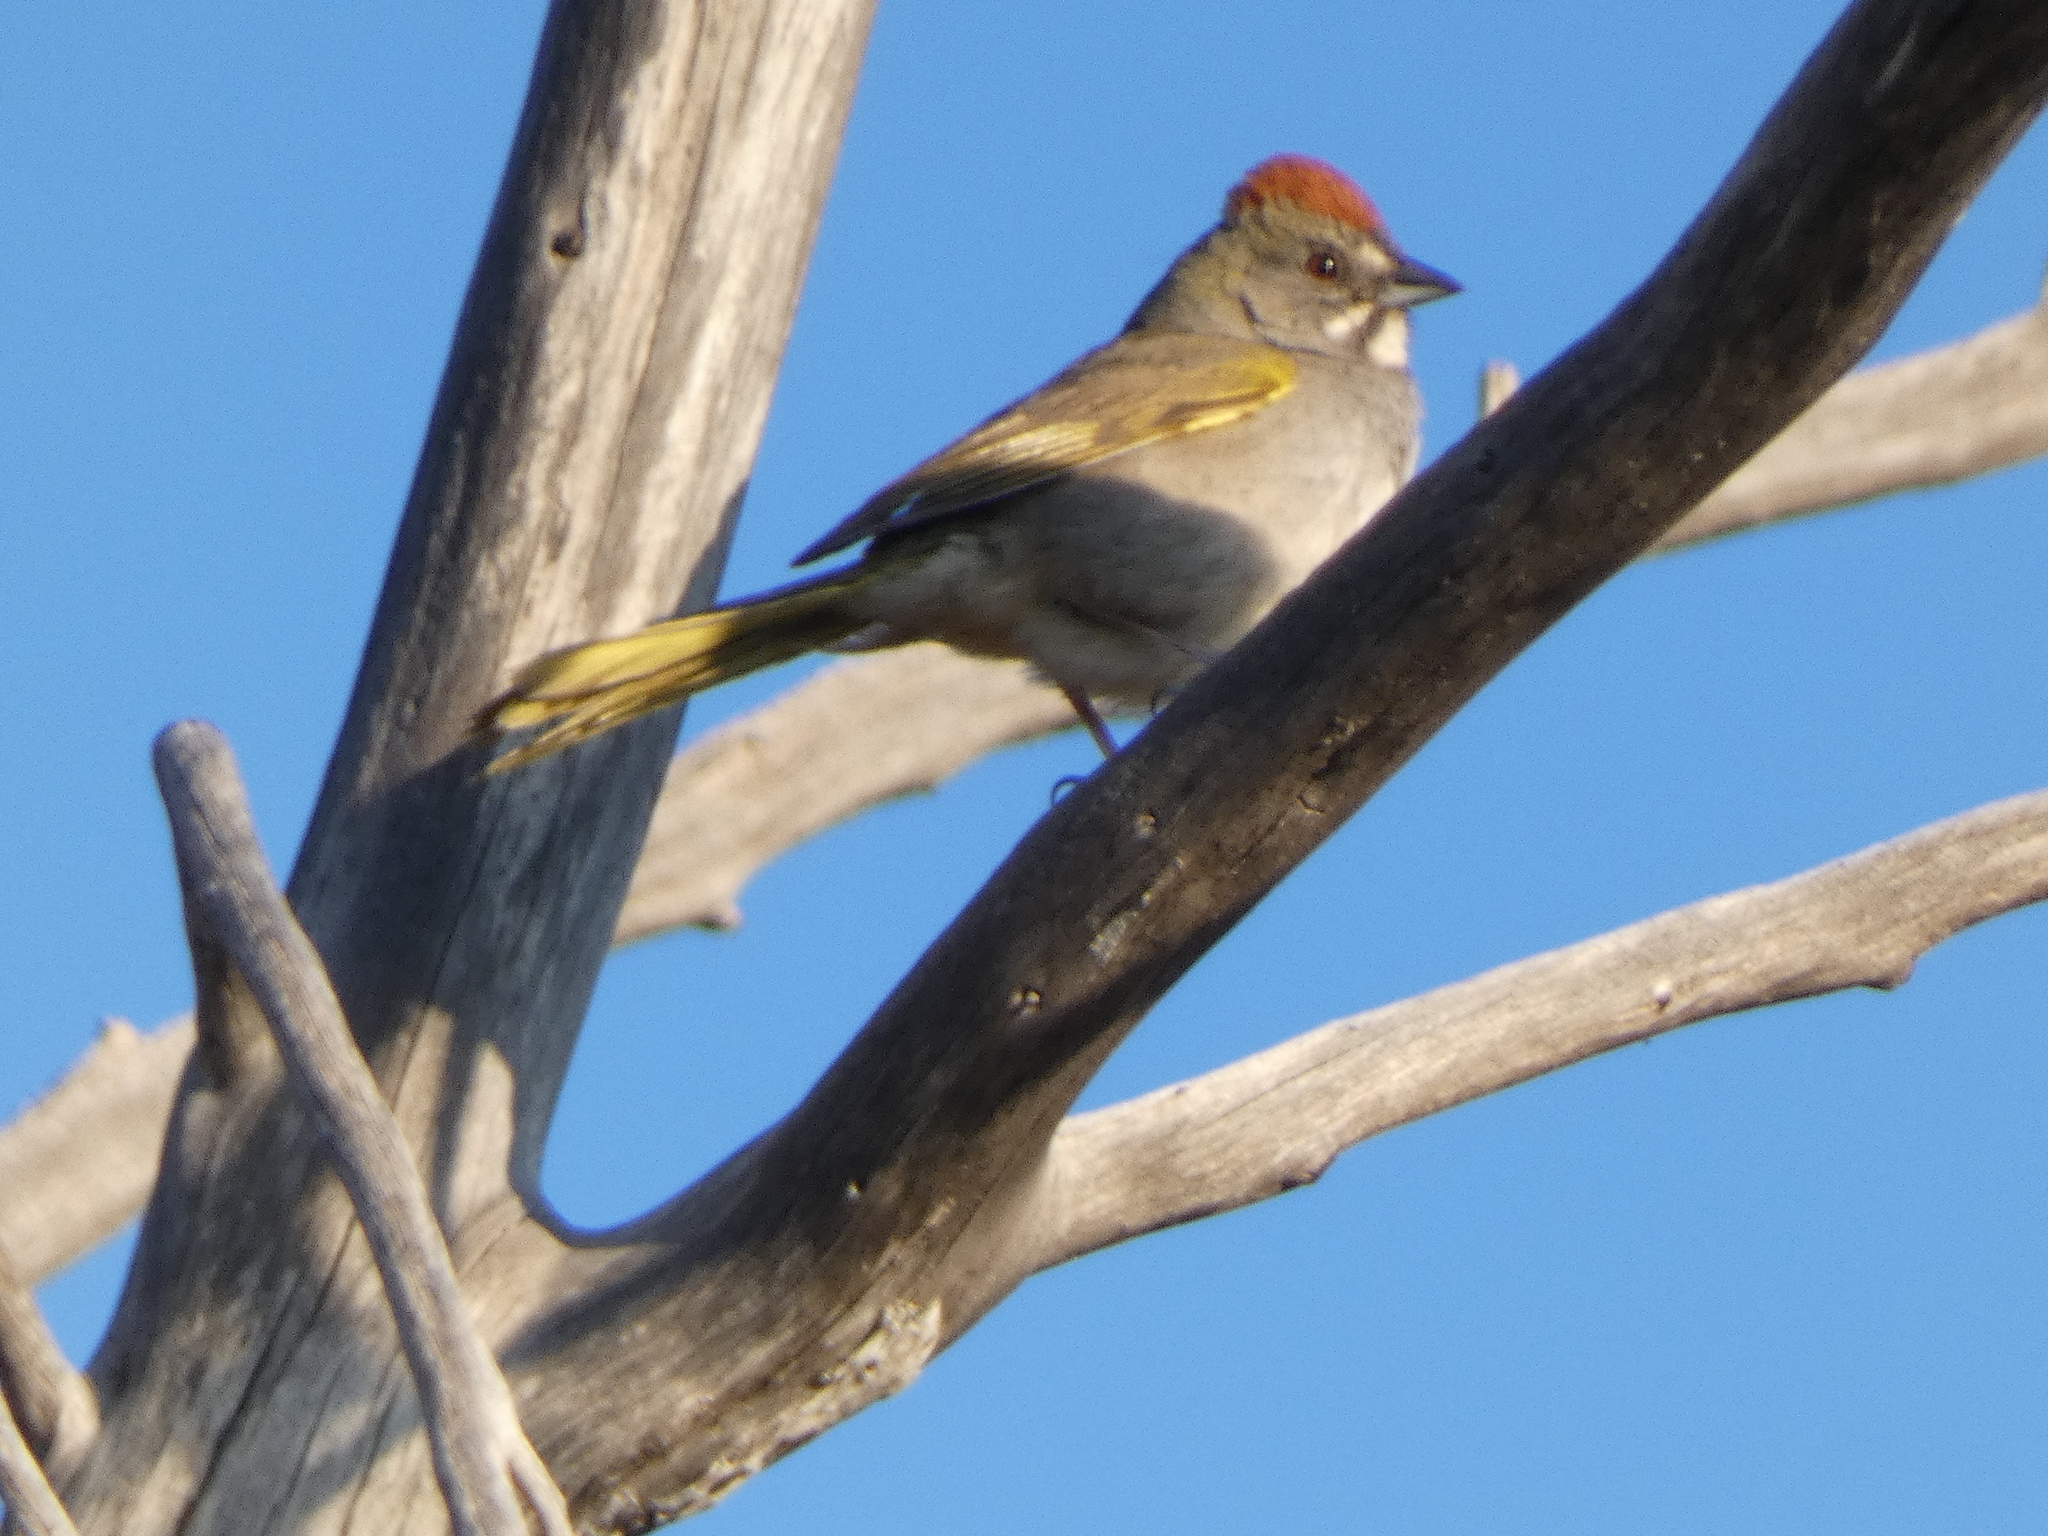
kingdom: Animalia
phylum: Chordata
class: Aves
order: Passeriformes
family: Passerellidae
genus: Pipilo
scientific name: Pipilo chlorurus
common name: Green-tailed towhee
